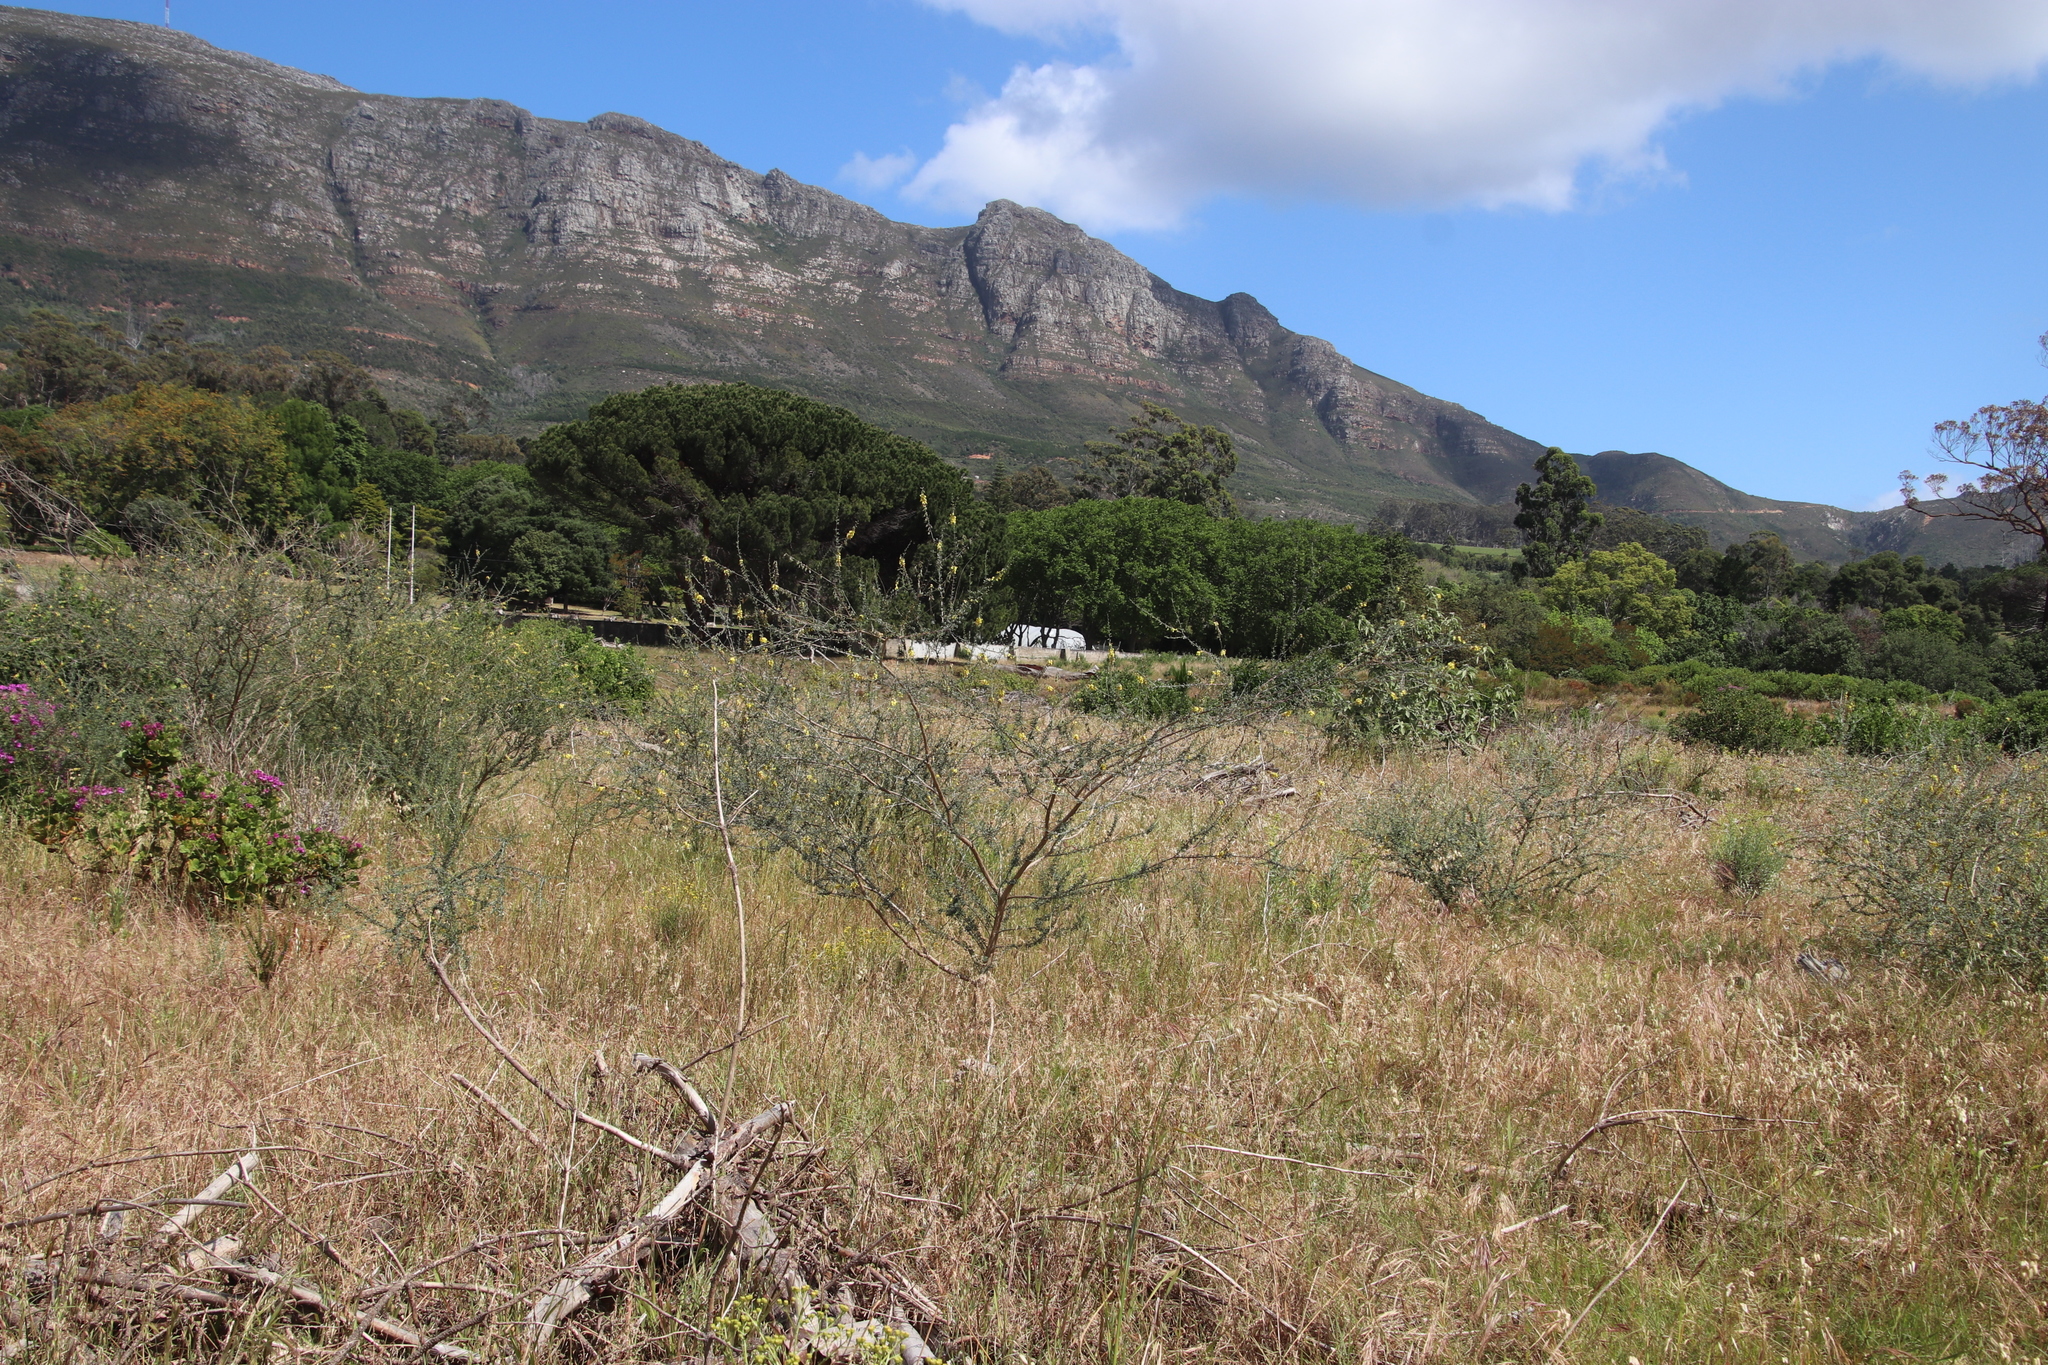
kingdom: Plantae
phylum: Tracheophyta
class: Magnoliopsida
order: Fabales
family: Fabaceae
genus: Wiborgia
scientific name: Wiborgia obcordata
